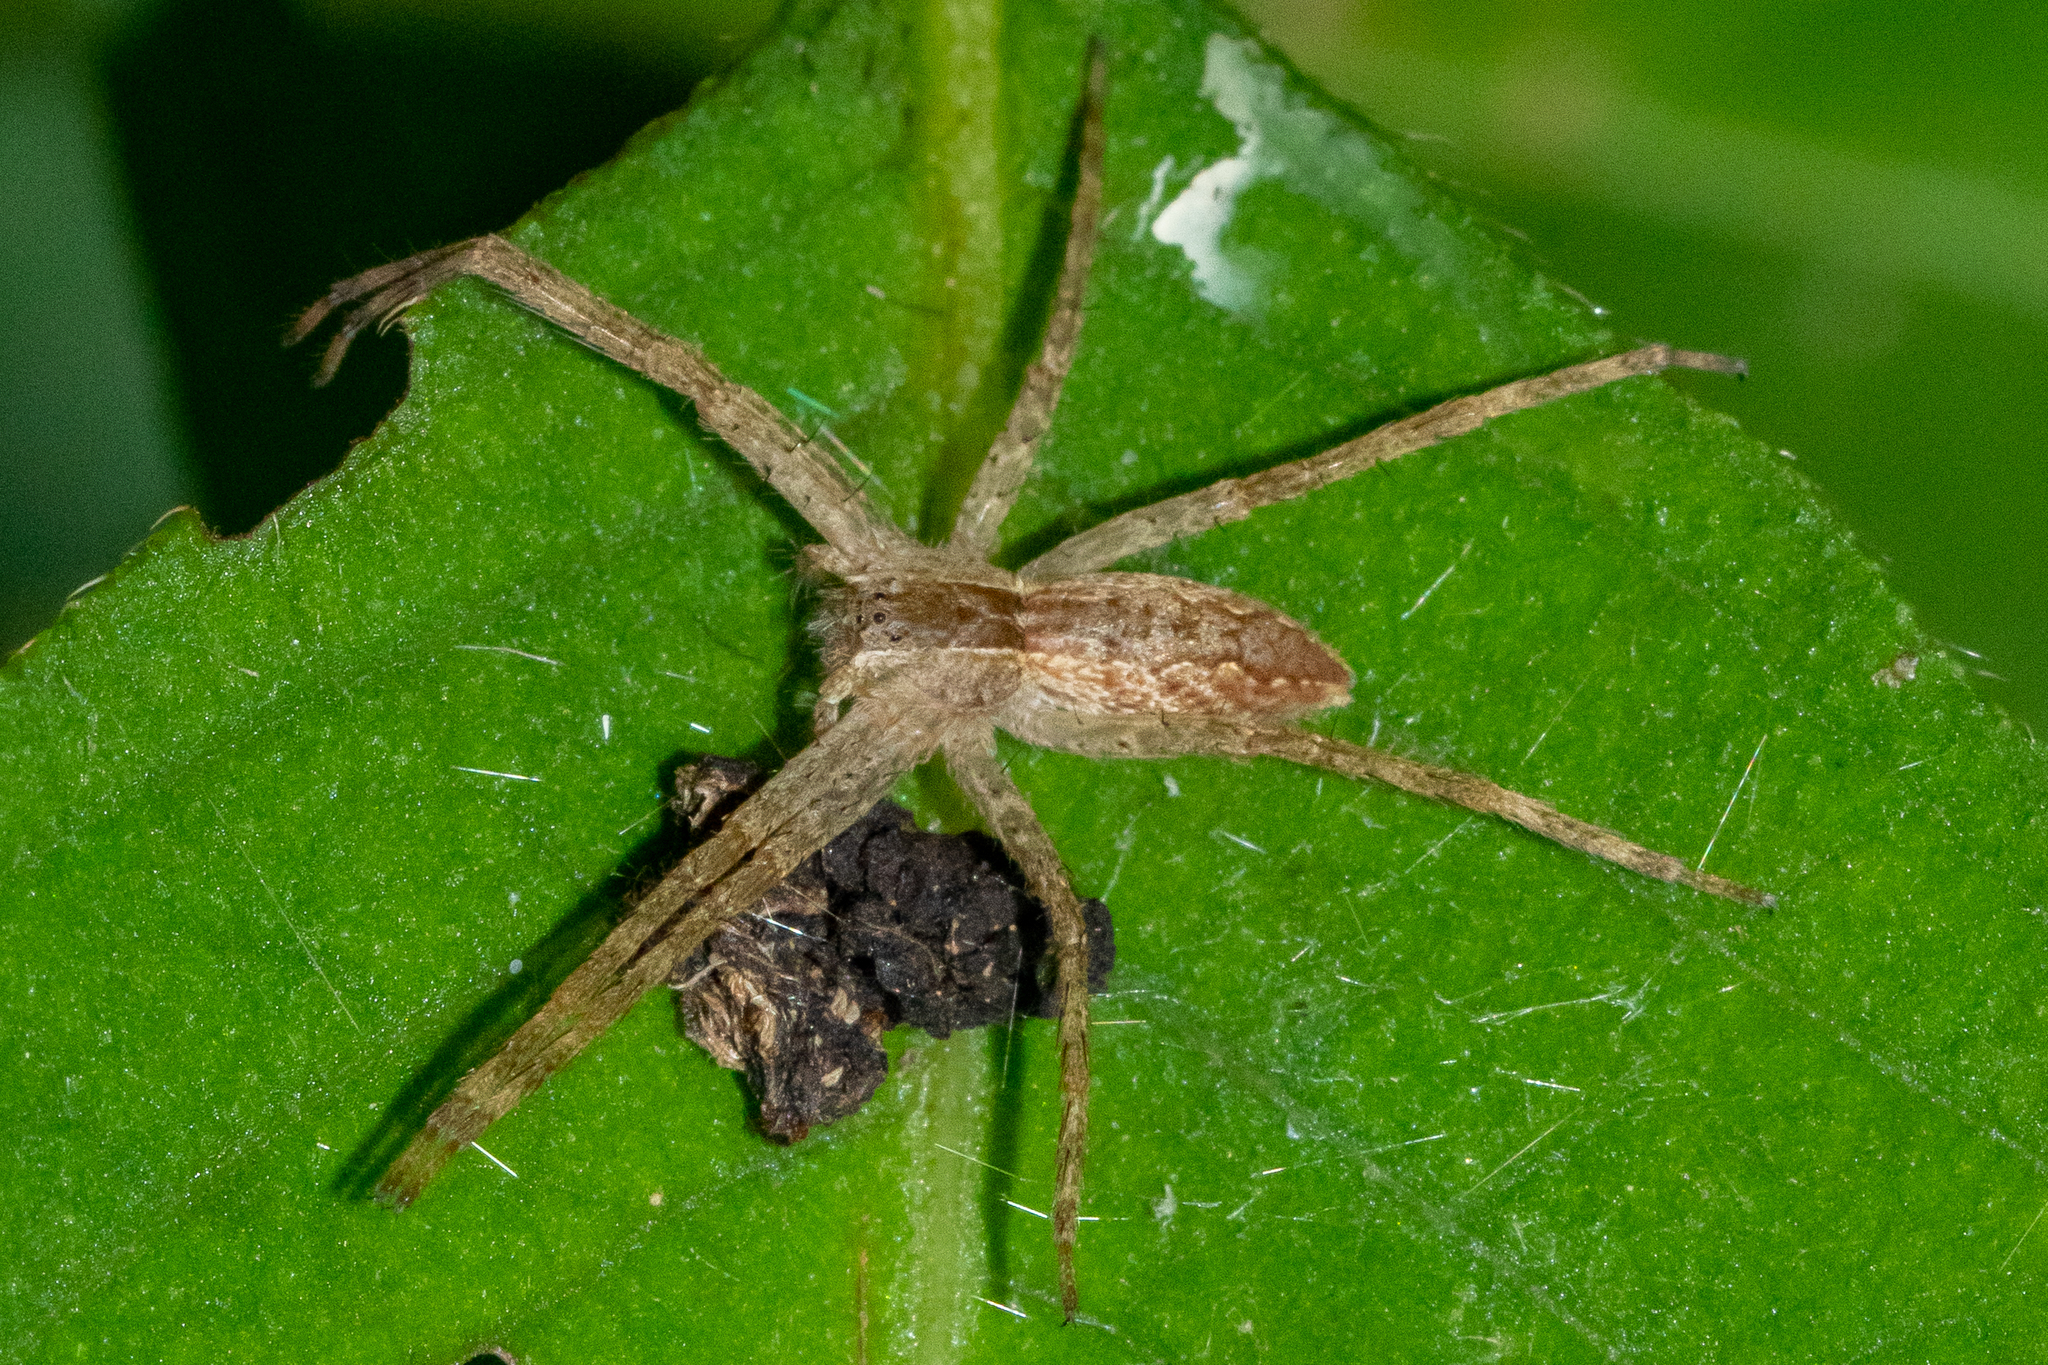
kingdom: Animalia
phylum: Arthropoda
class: Arachnida
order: Araneae
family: Pisauridae
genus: Pisaurina
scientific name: Pisaurina mira
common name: American nursery web spider
